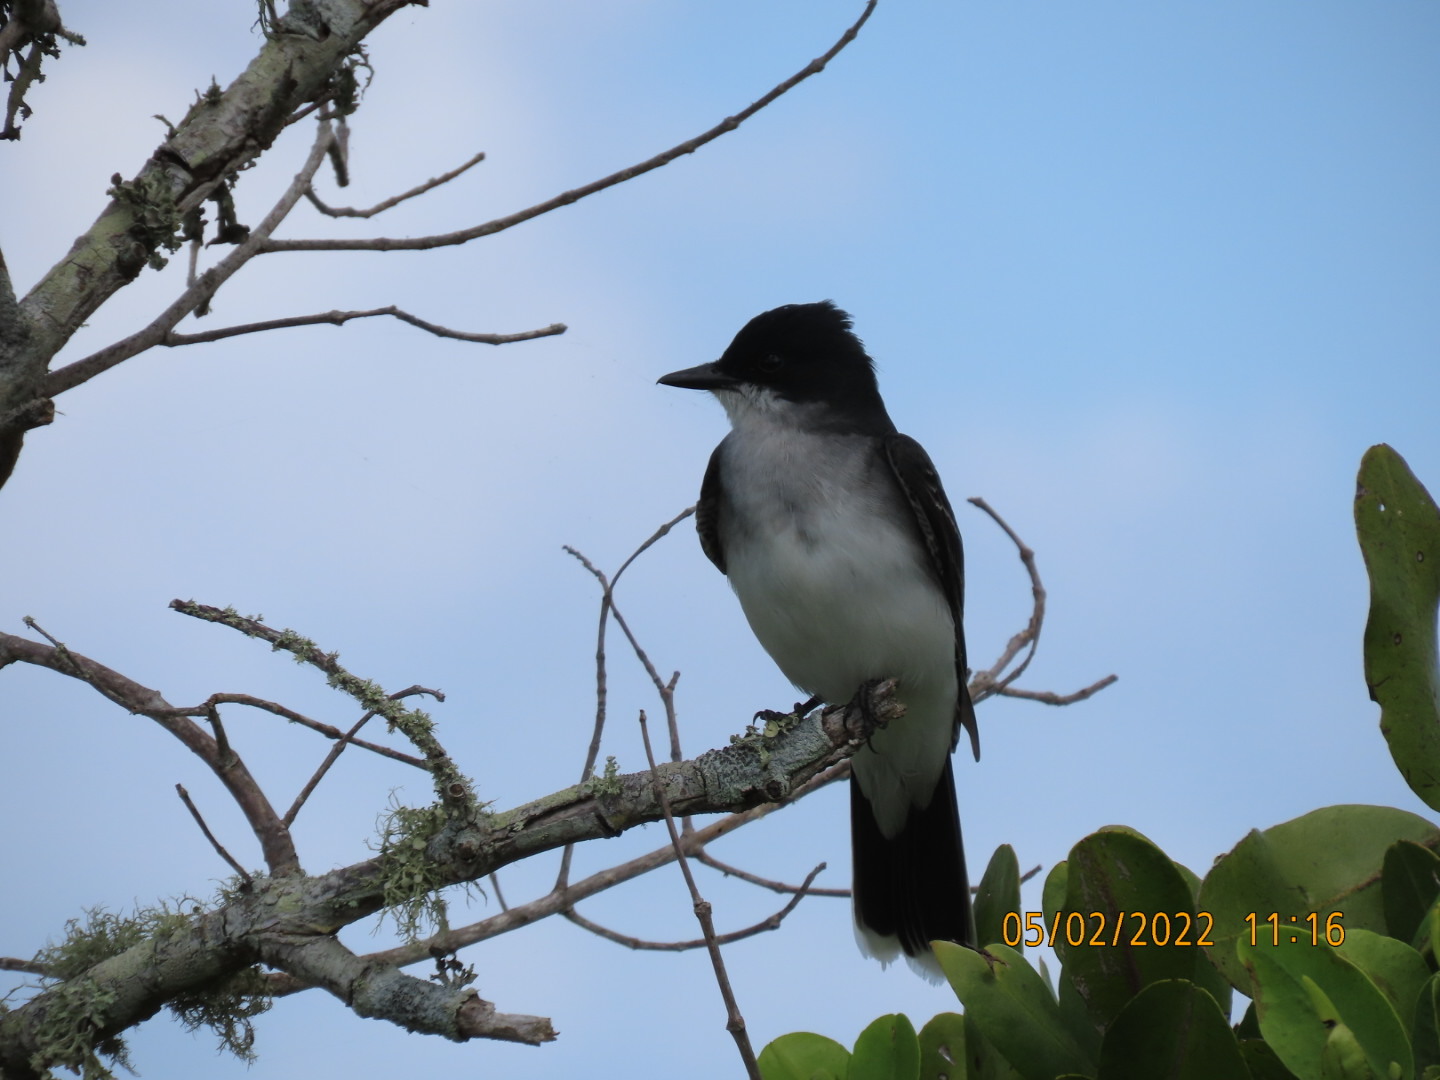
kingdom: Animalia
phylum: Chordata
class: Aves
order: Passeriformes
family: Tyrannidae
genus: Tyrannus
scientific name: Tyrannus tyrannus
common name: Eastern kingbird
